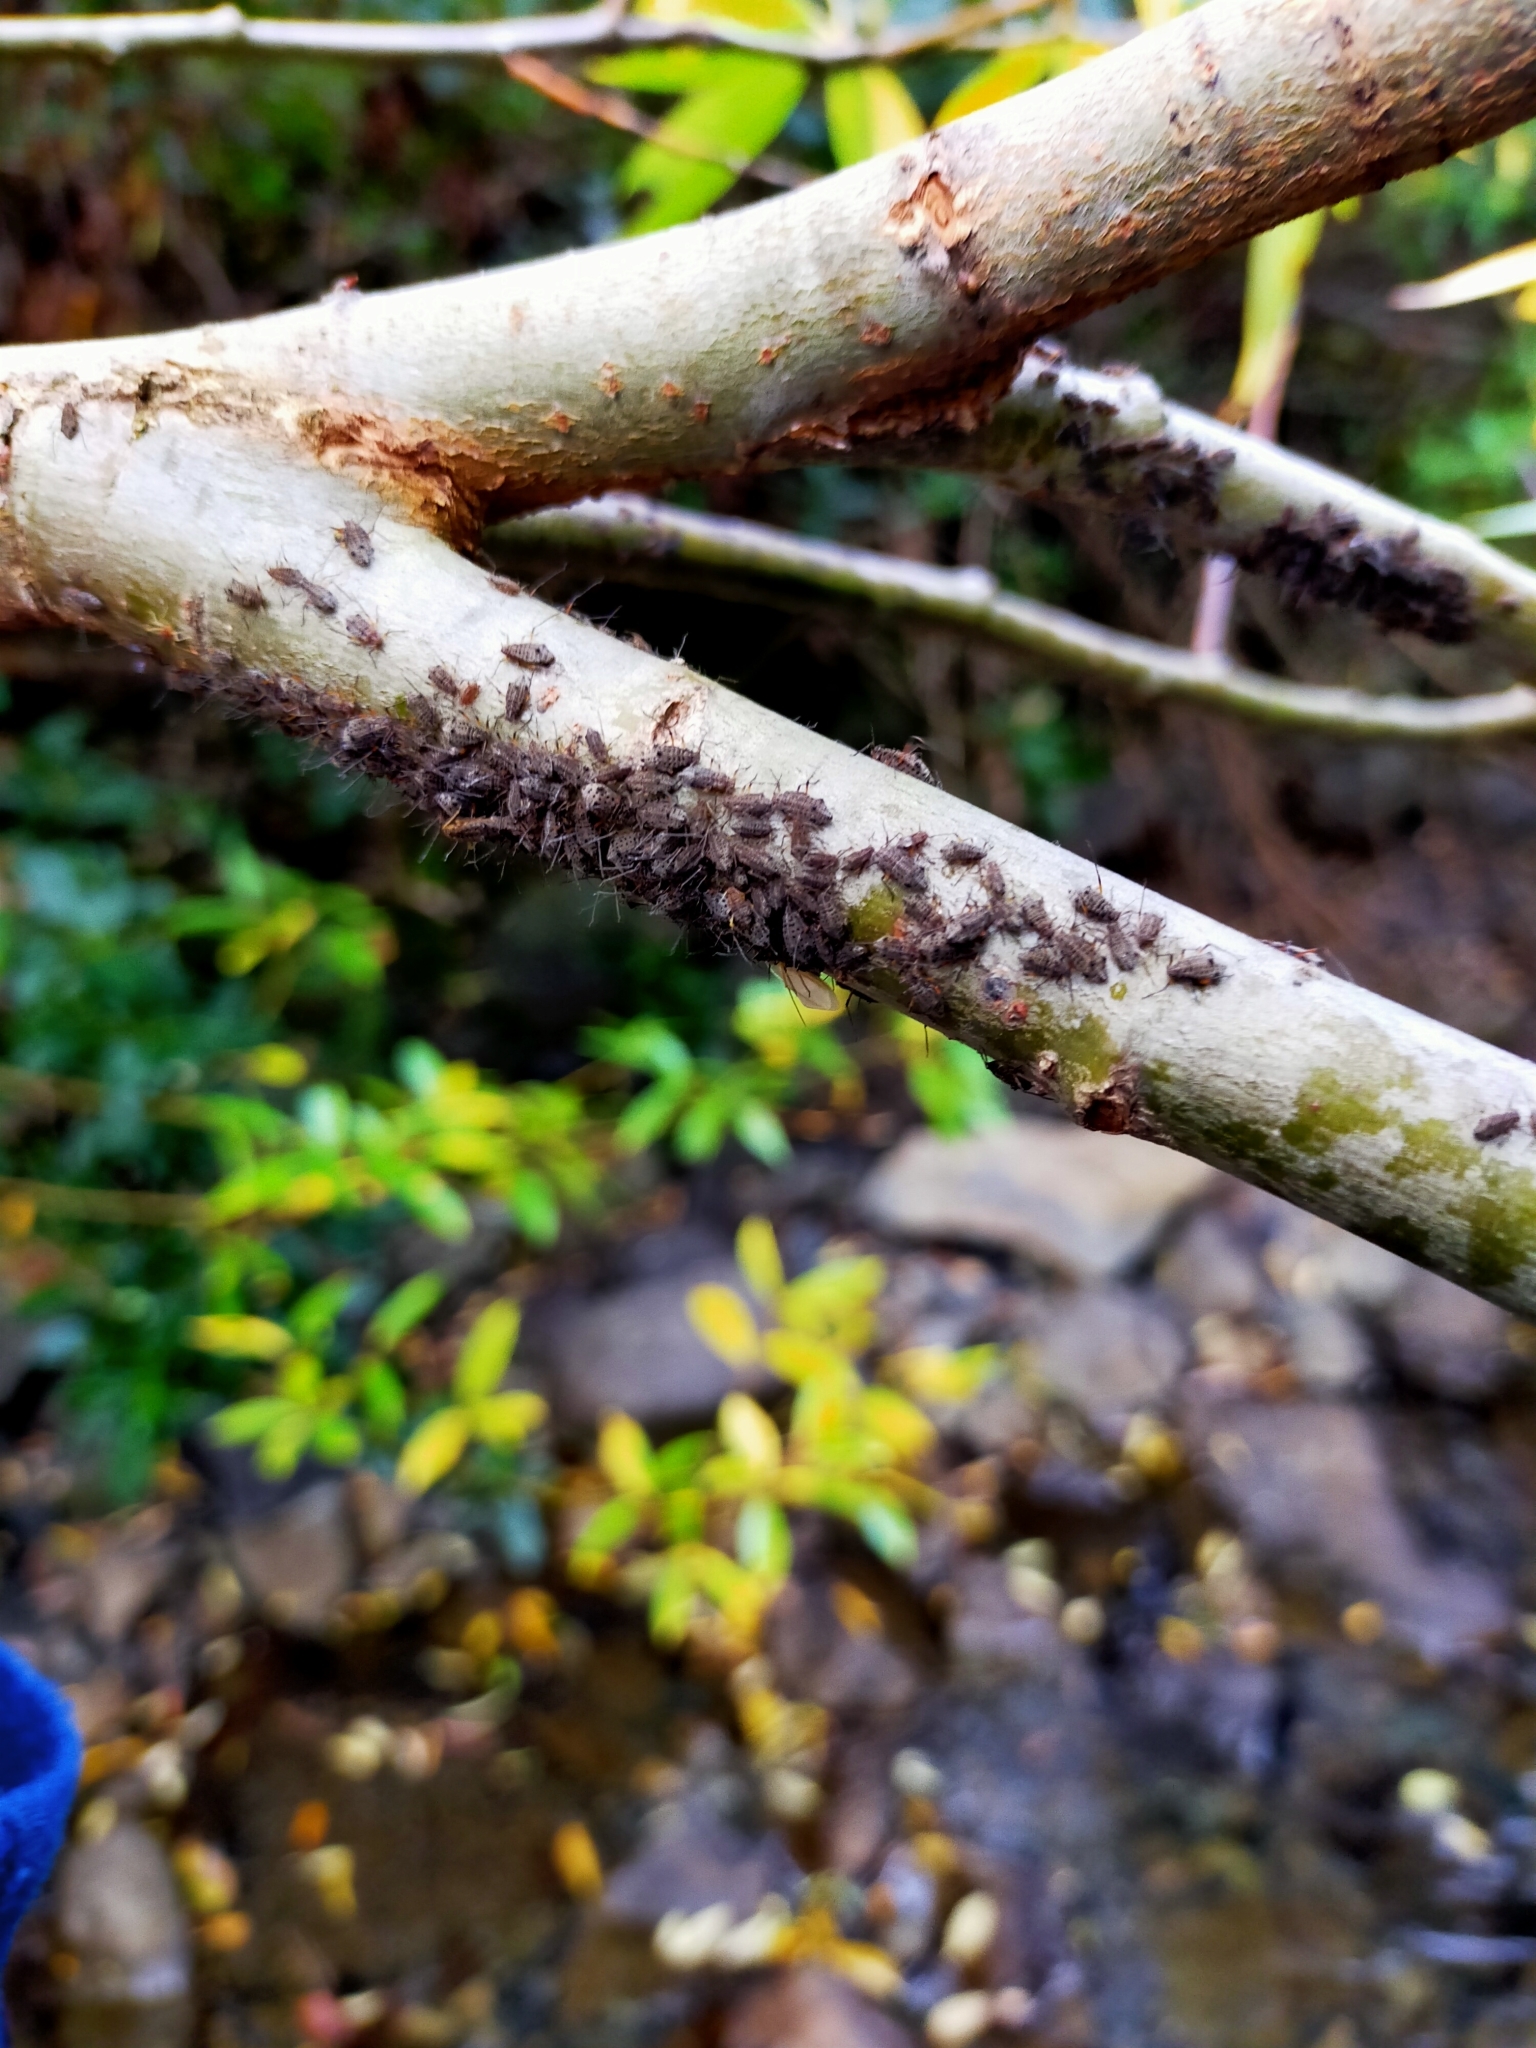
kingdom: Animalia
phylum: Arthropoda
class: Insecta
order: Hemiptera
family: Aphididae
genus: Tuberolachnus
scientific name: Tuberolachnus salignus
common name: Giant willow aphid
